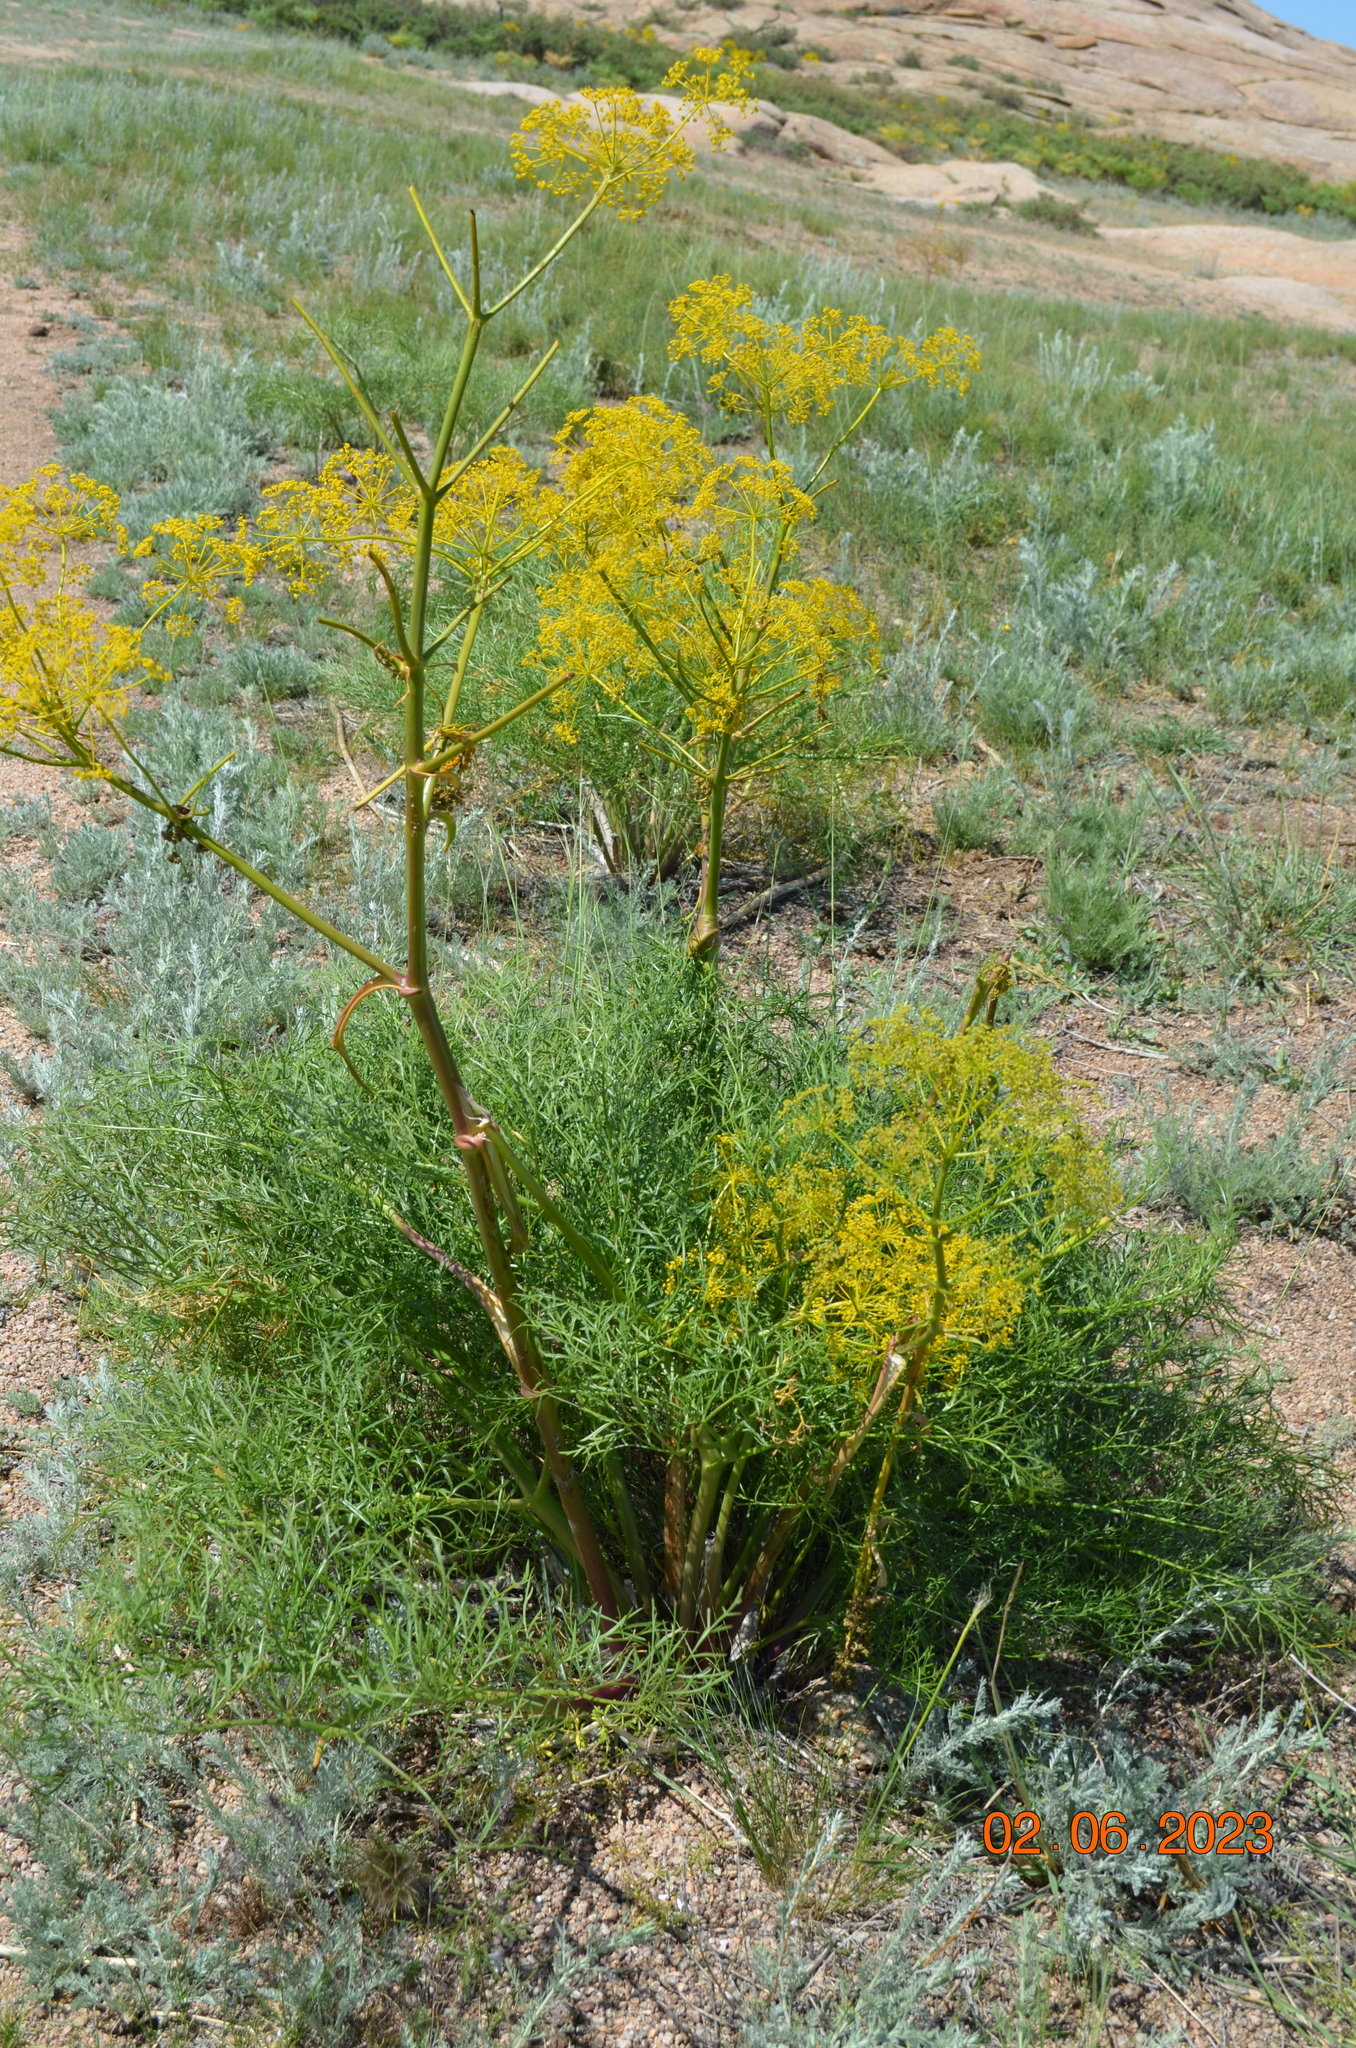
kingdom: Plantae
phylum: Tracheophyta
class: Magnoliopsida
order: Apiales
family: Apiaceae
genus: Ferula
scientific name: Ferula songarica
